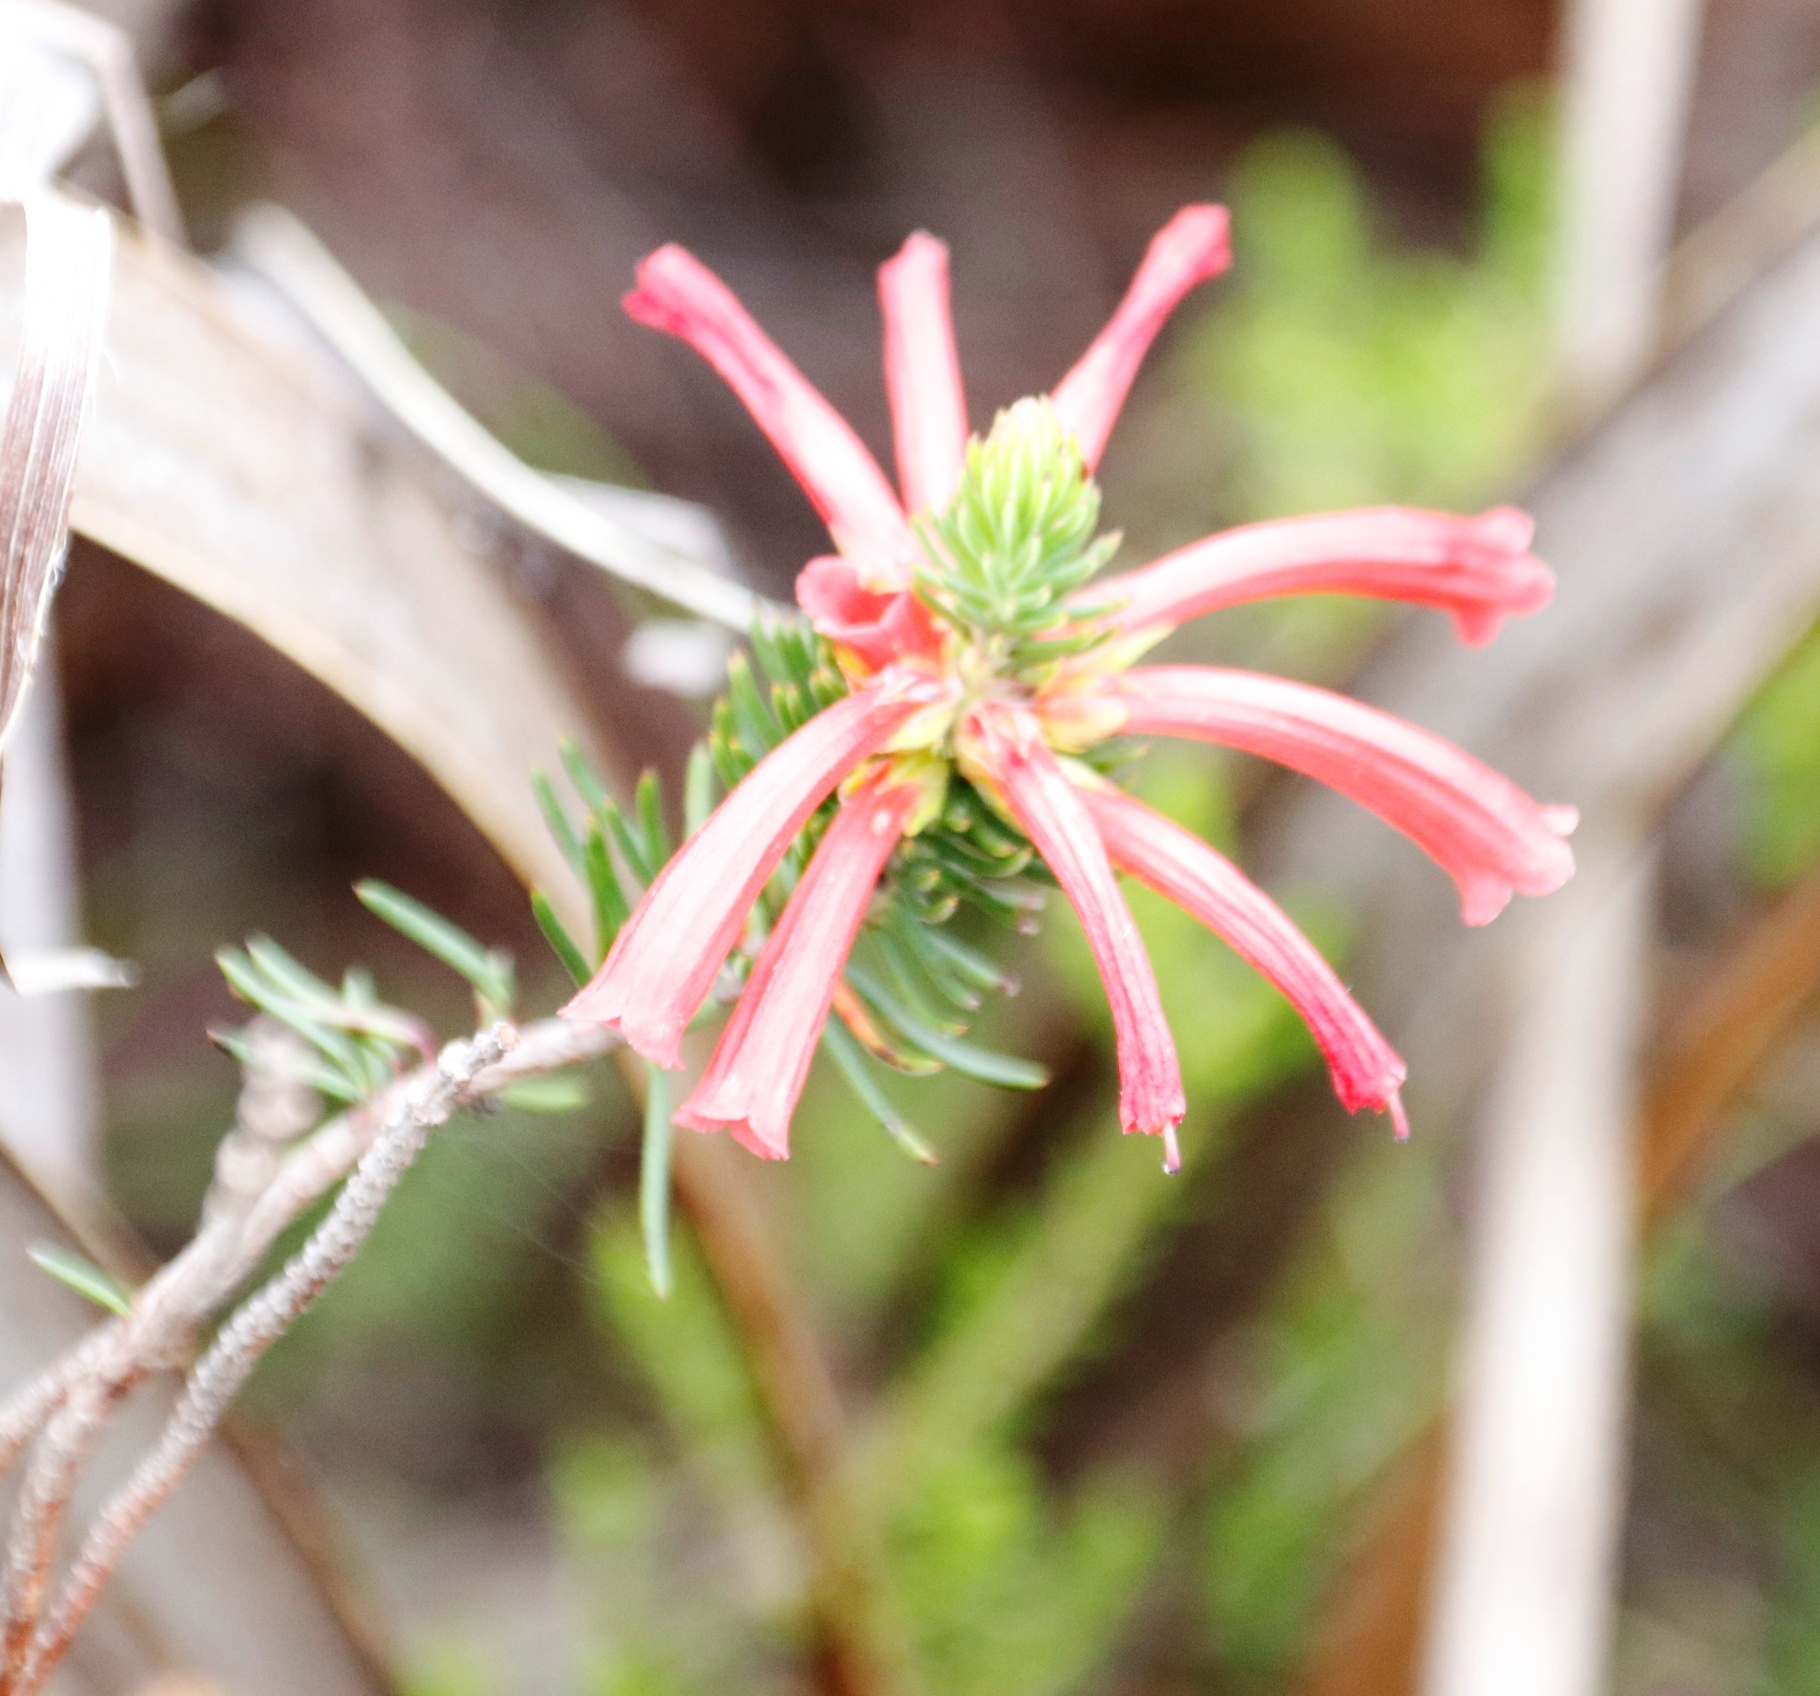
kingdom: Plantae
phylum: Tracheophyta
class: Magnoliopsida
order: Ericales
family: Ericaceae
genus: Erica
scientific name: Erica abietina
